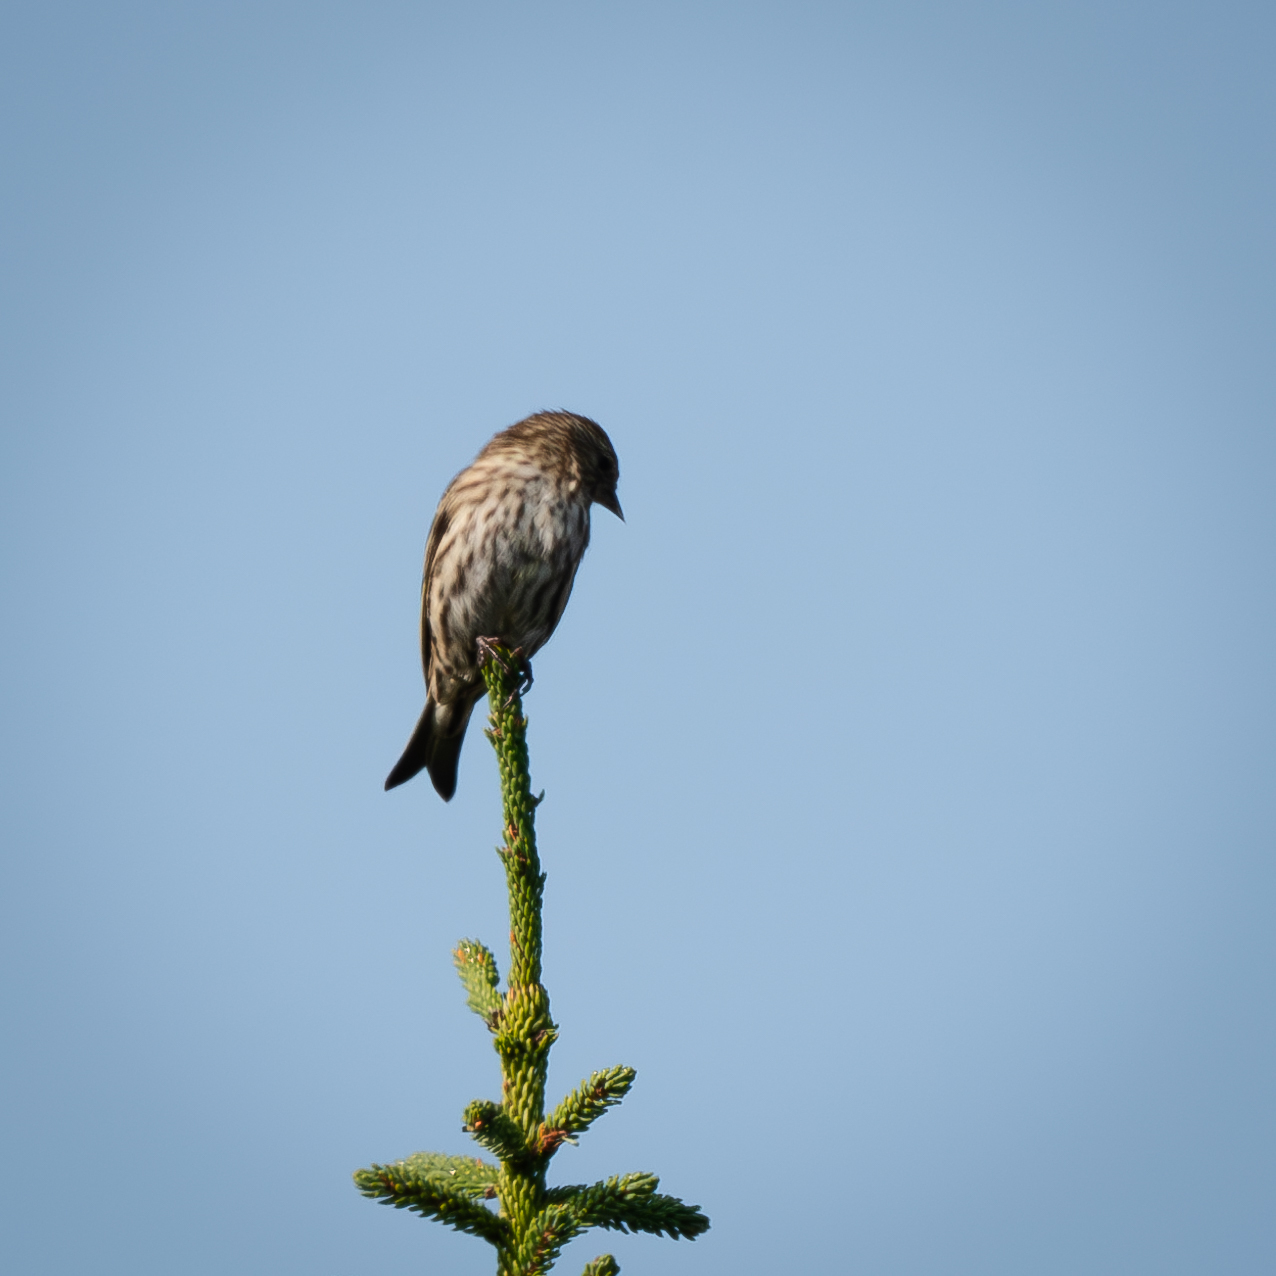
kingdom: Animalia
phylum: Chordata
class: Aves
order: Passeriformes
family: Fringillidae
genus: Spinus
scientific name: Spinus pinus
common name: Pine siskin
